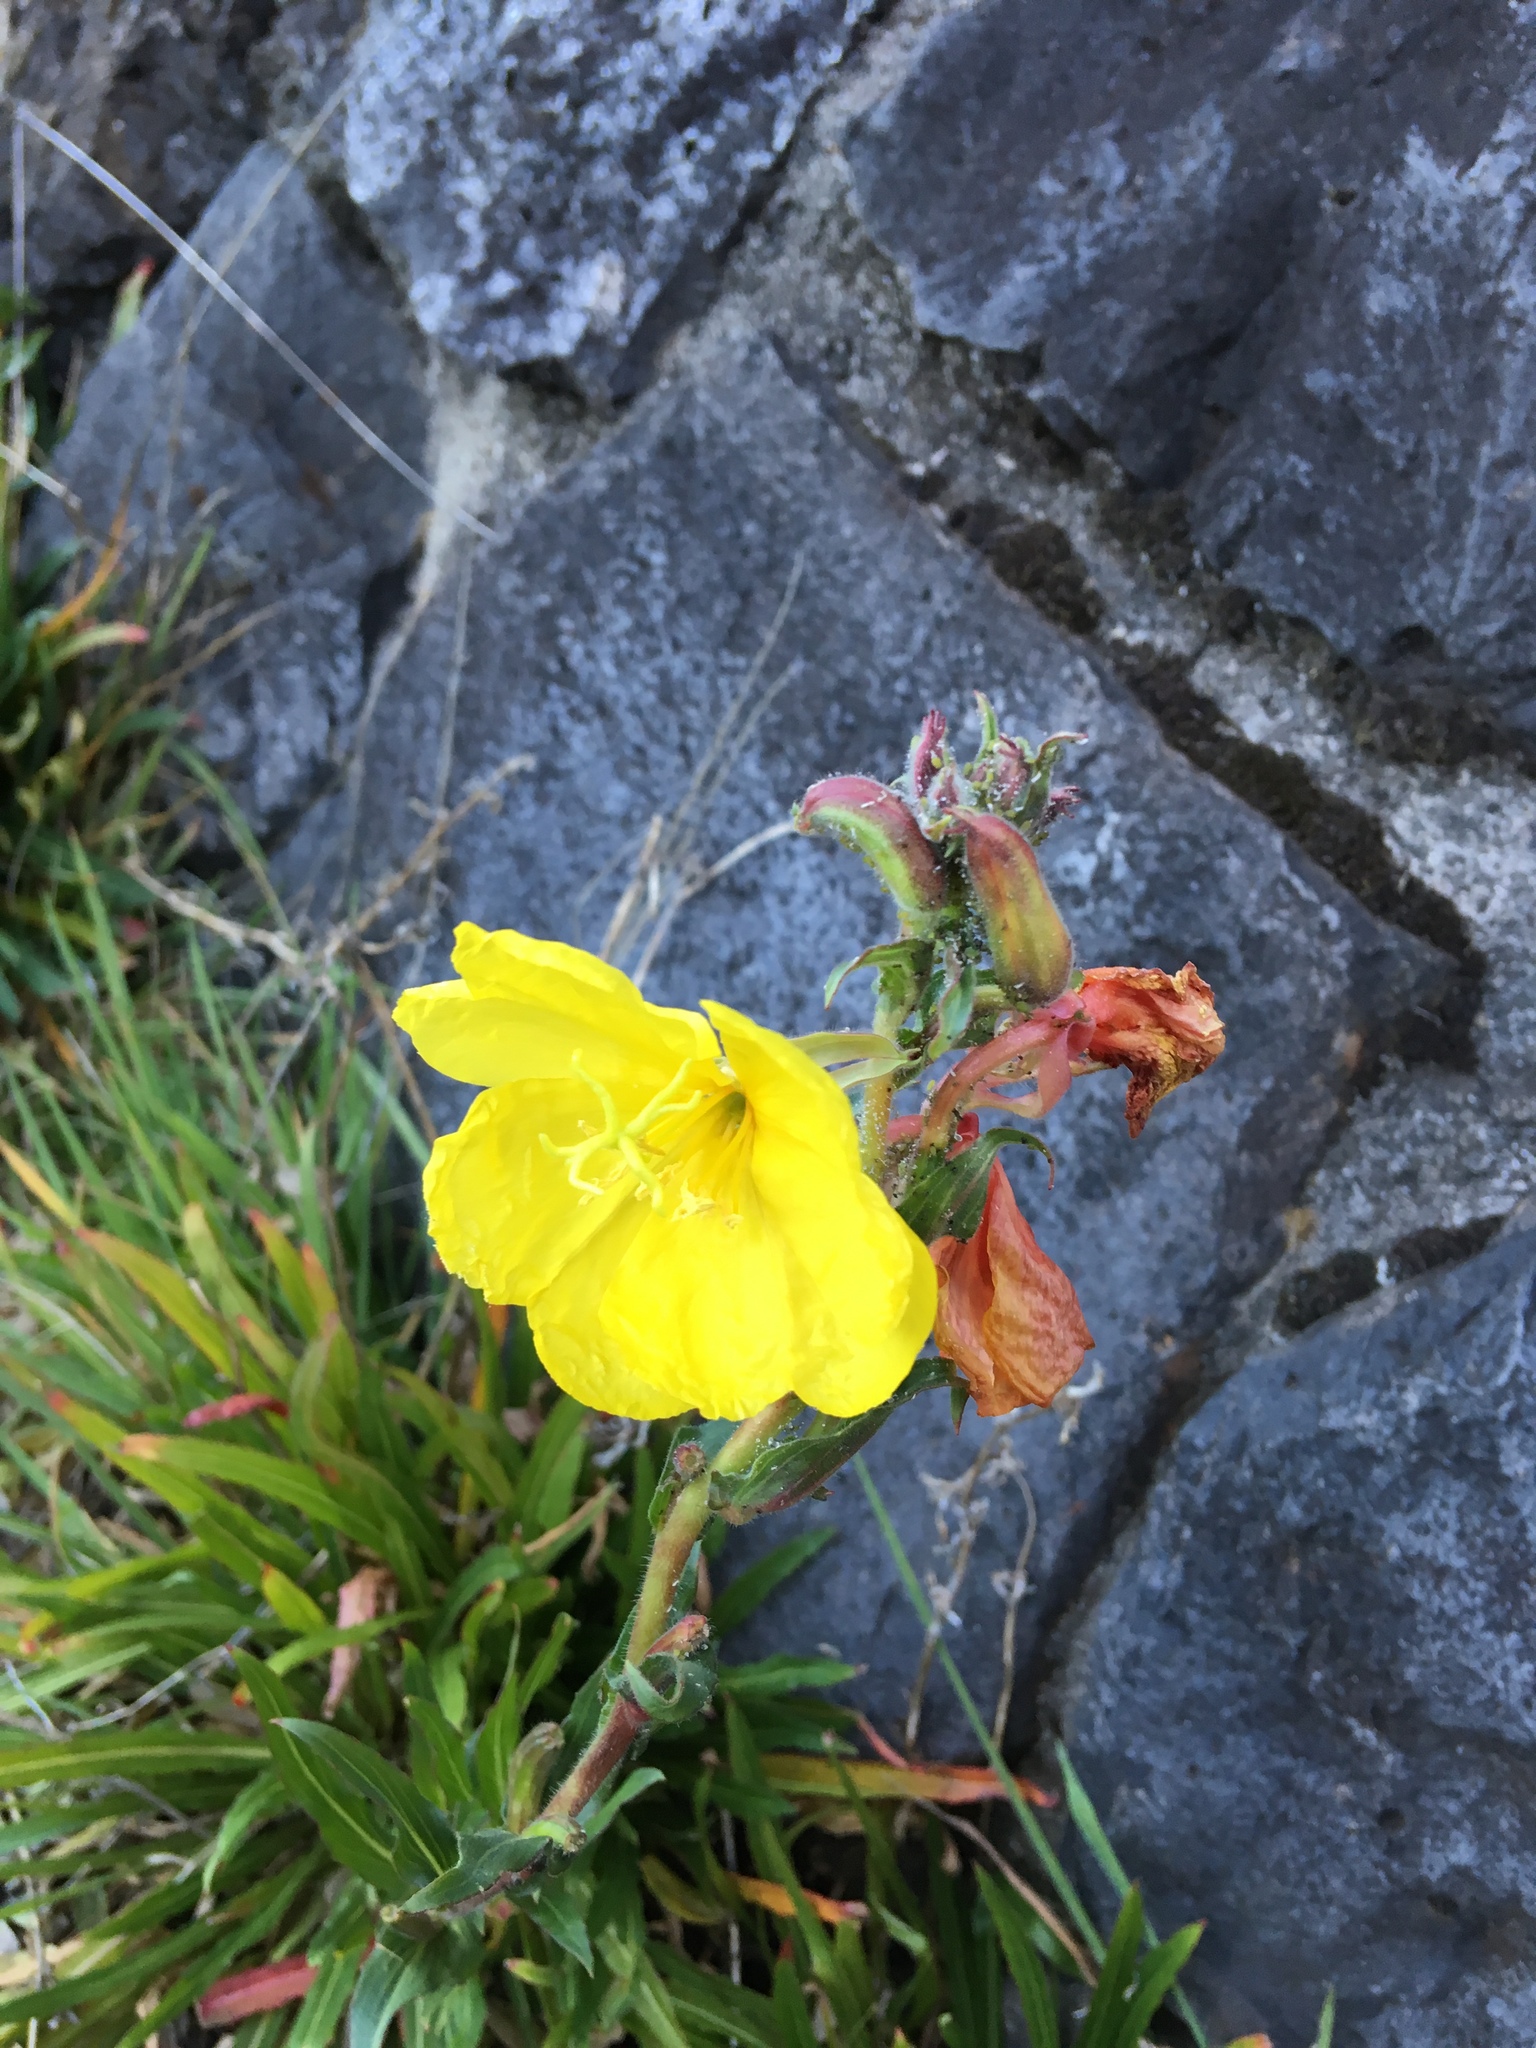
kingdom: Plantae
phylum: Tracheophyta
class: Magnoliopsida
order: Myrtales
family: Onagraceae
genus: Oenothera
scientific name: Oenothera stricta
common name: Fragrant evening-primrose
